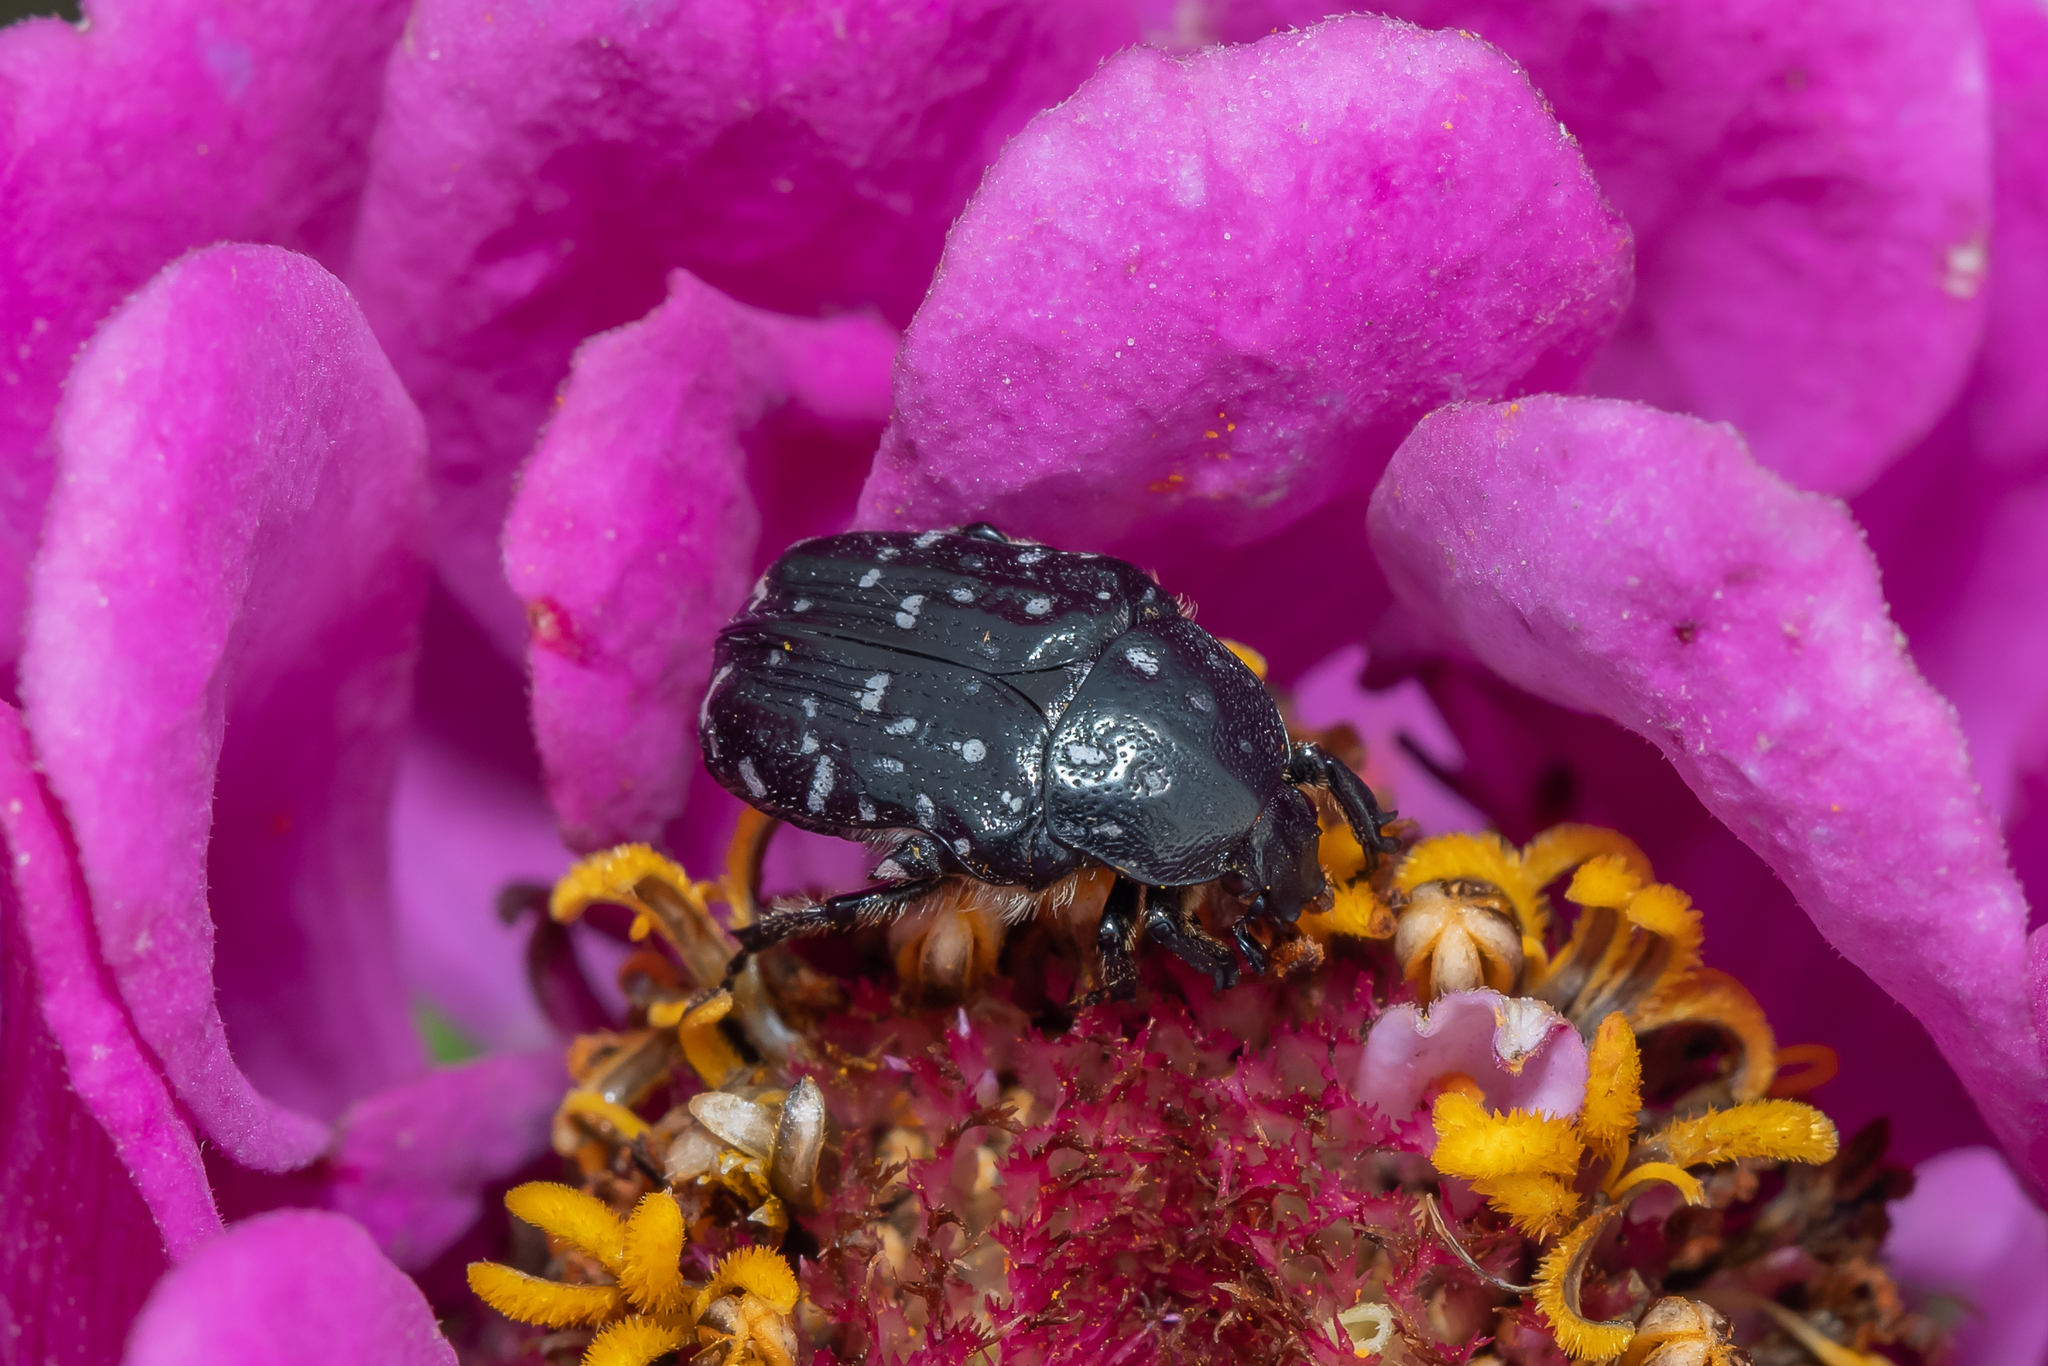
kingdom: Animalia
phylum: Arthropoda
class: Insecta
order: Coleoptera
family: Scarabaeidae
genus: Oxythyrea
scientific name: Oxythyrea funesta
